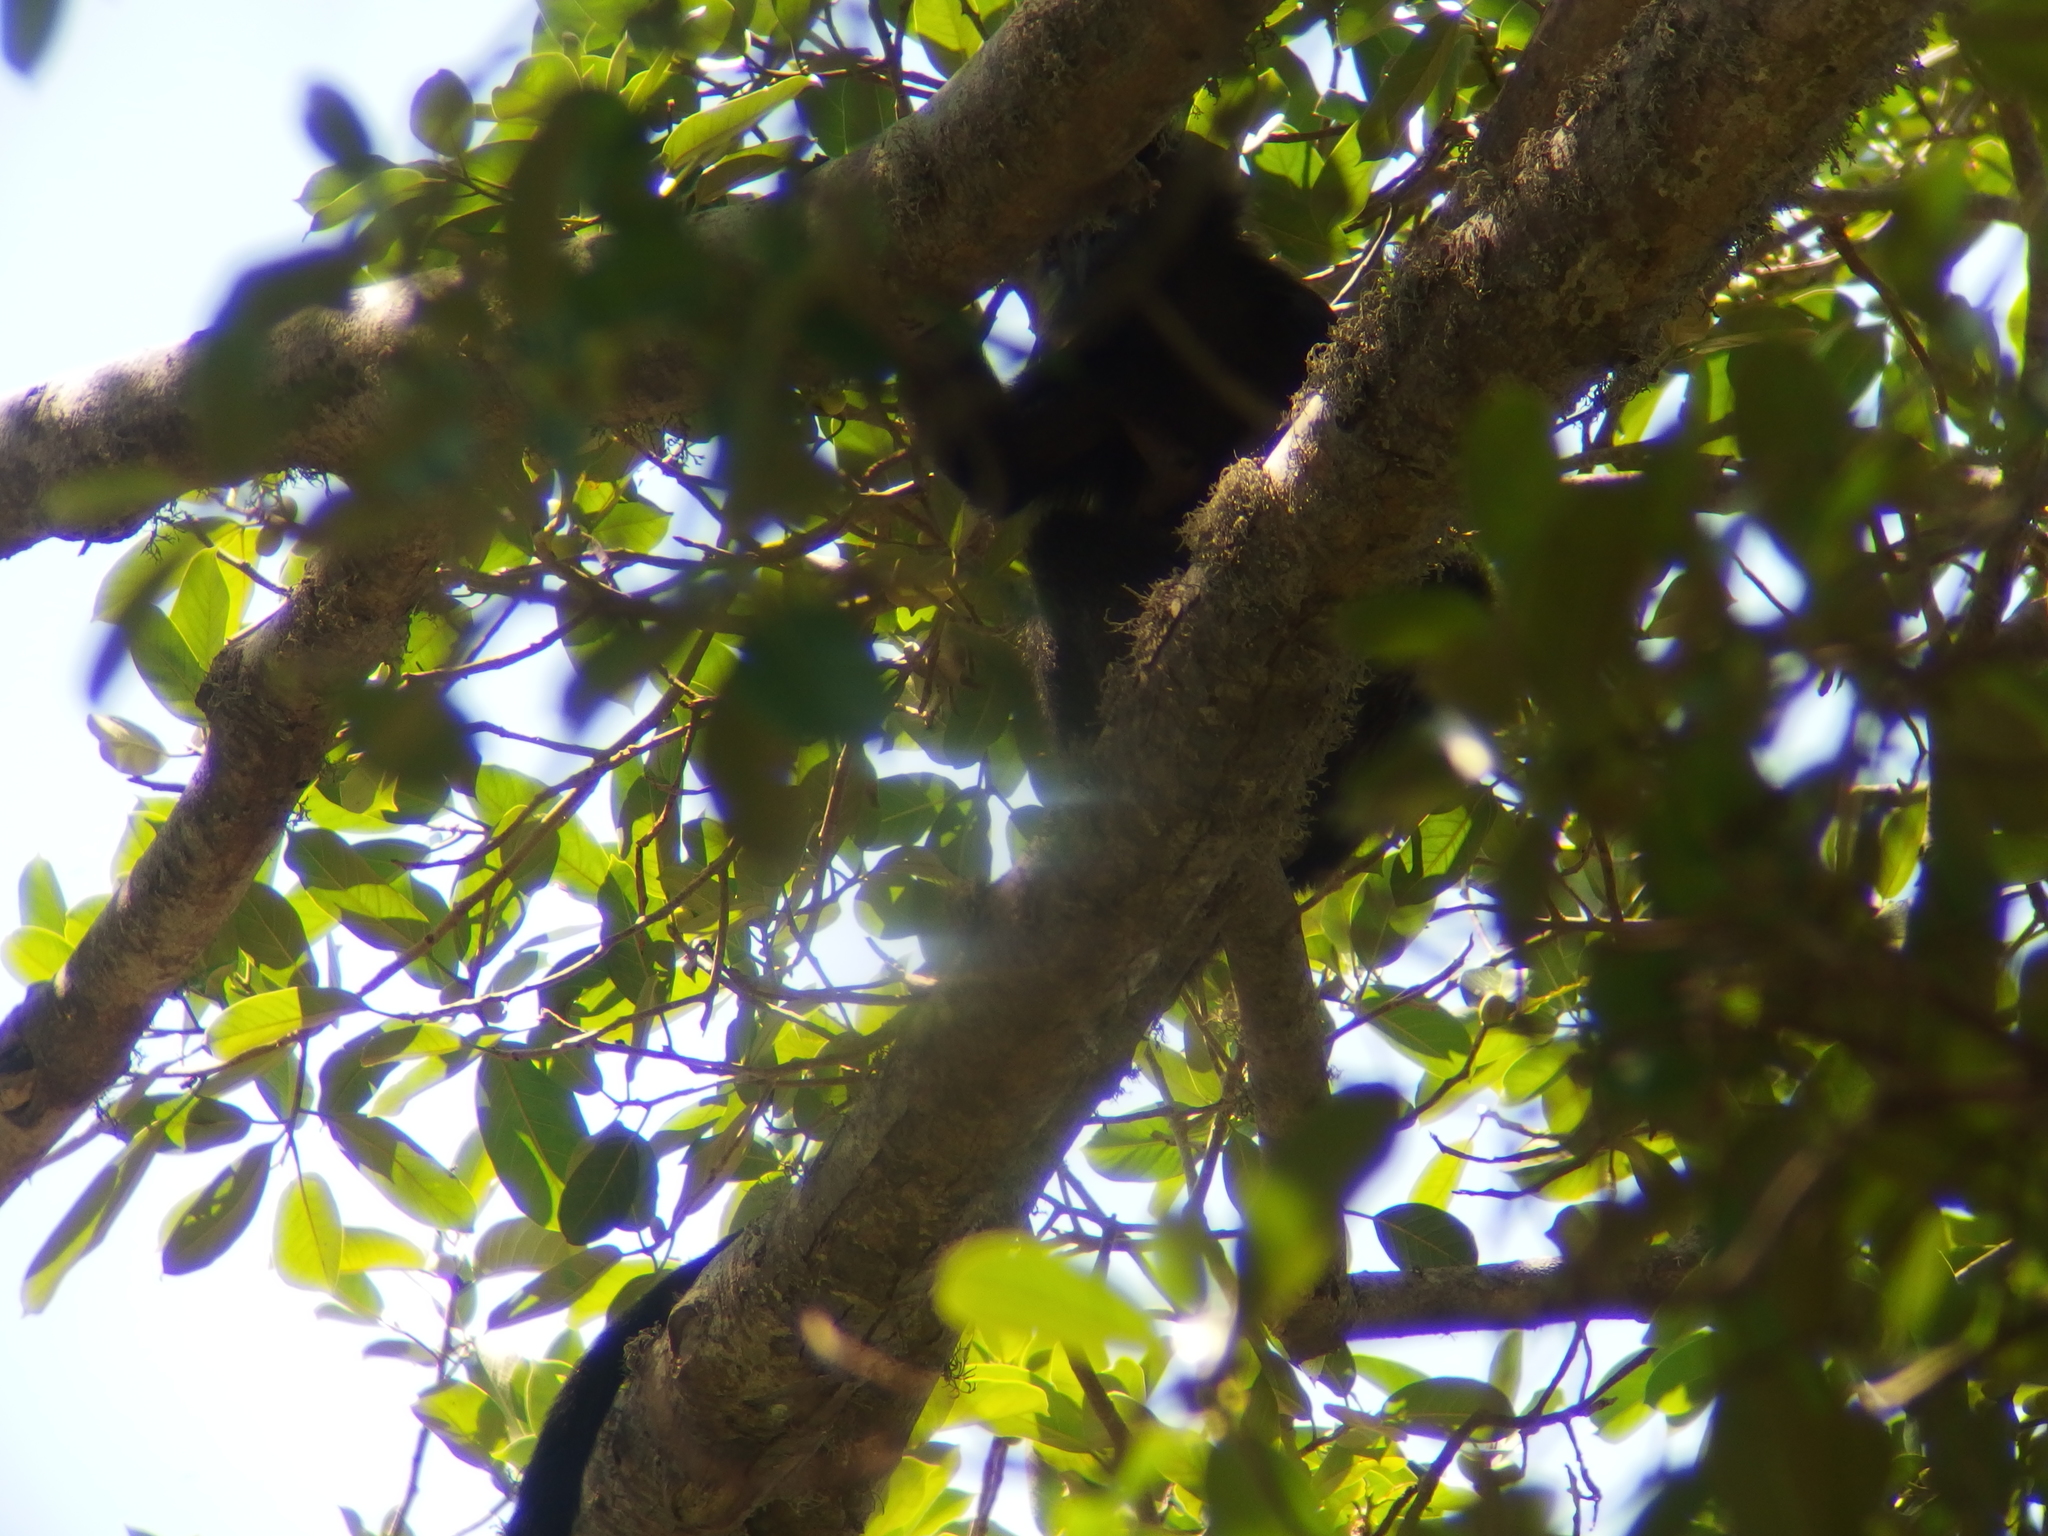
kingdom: Animalia
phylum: Chordata
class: Mammalia
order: Primates
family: Cercopithecidae
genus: Trachypithecus
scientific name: Trachypithecus auratus
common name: Javan lutung
